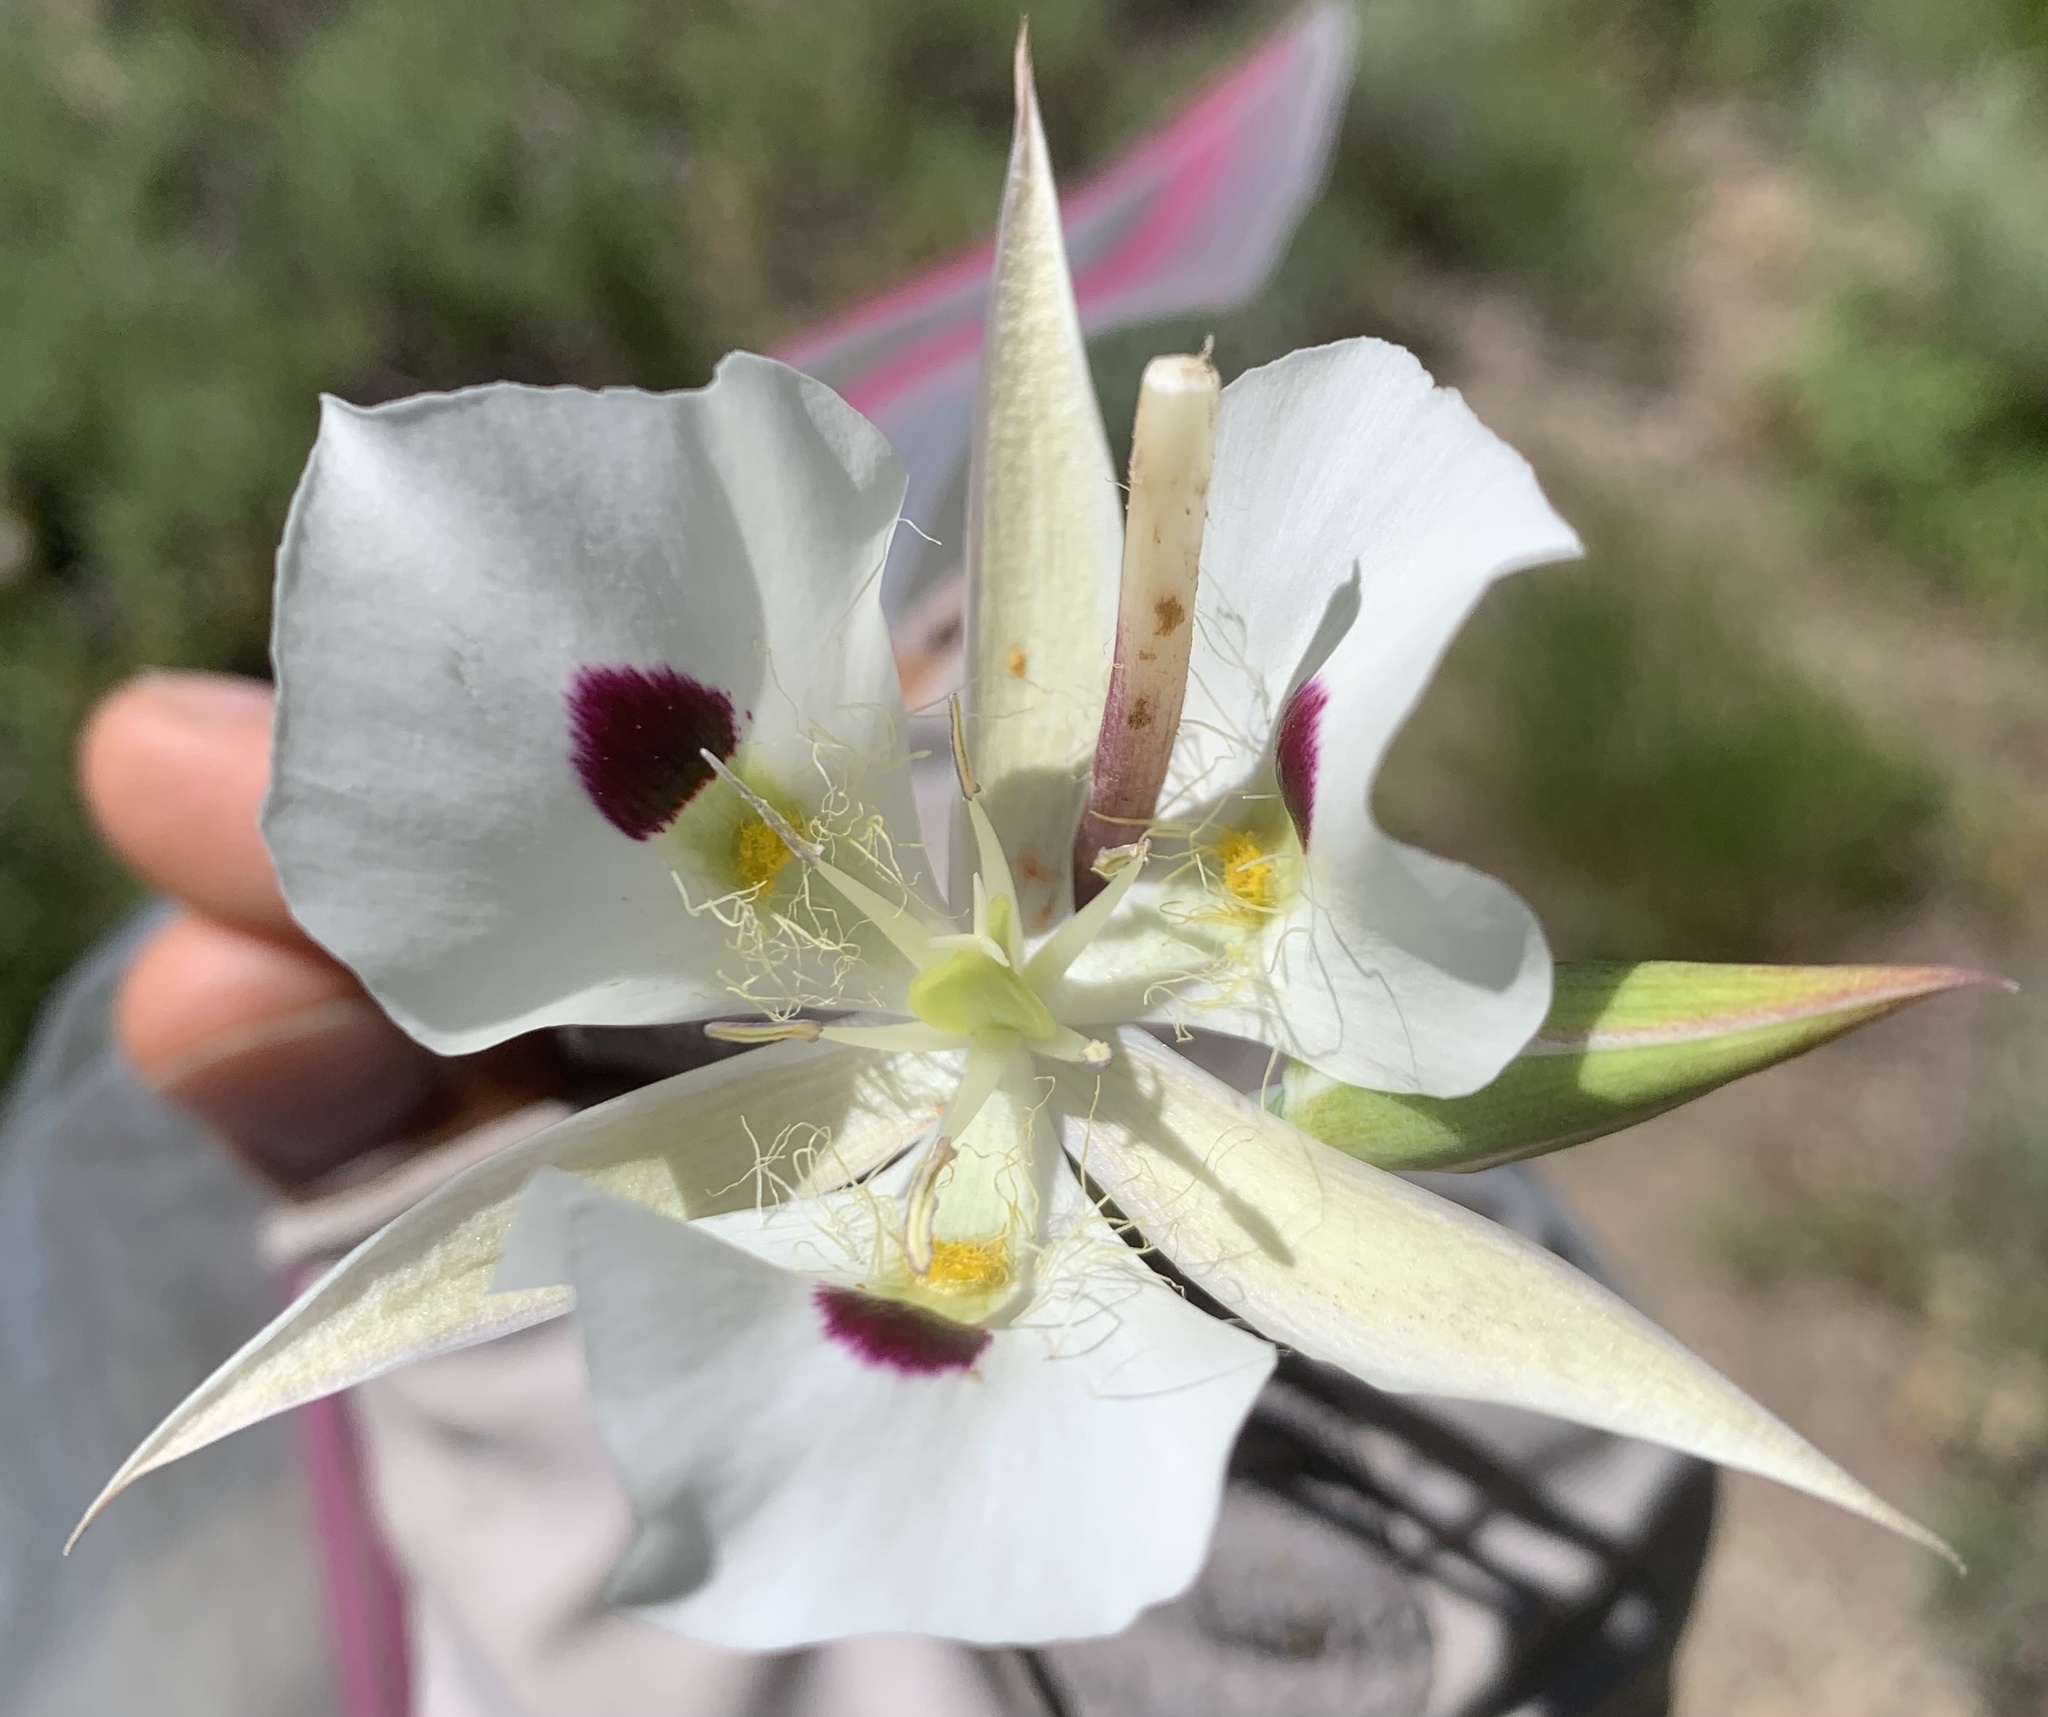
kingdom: Plantae
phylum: Tracheophyta
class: Liliopsida
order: Liliales
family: Liliaceae
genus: Calochortus
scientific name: Calochortus eurycarpus
